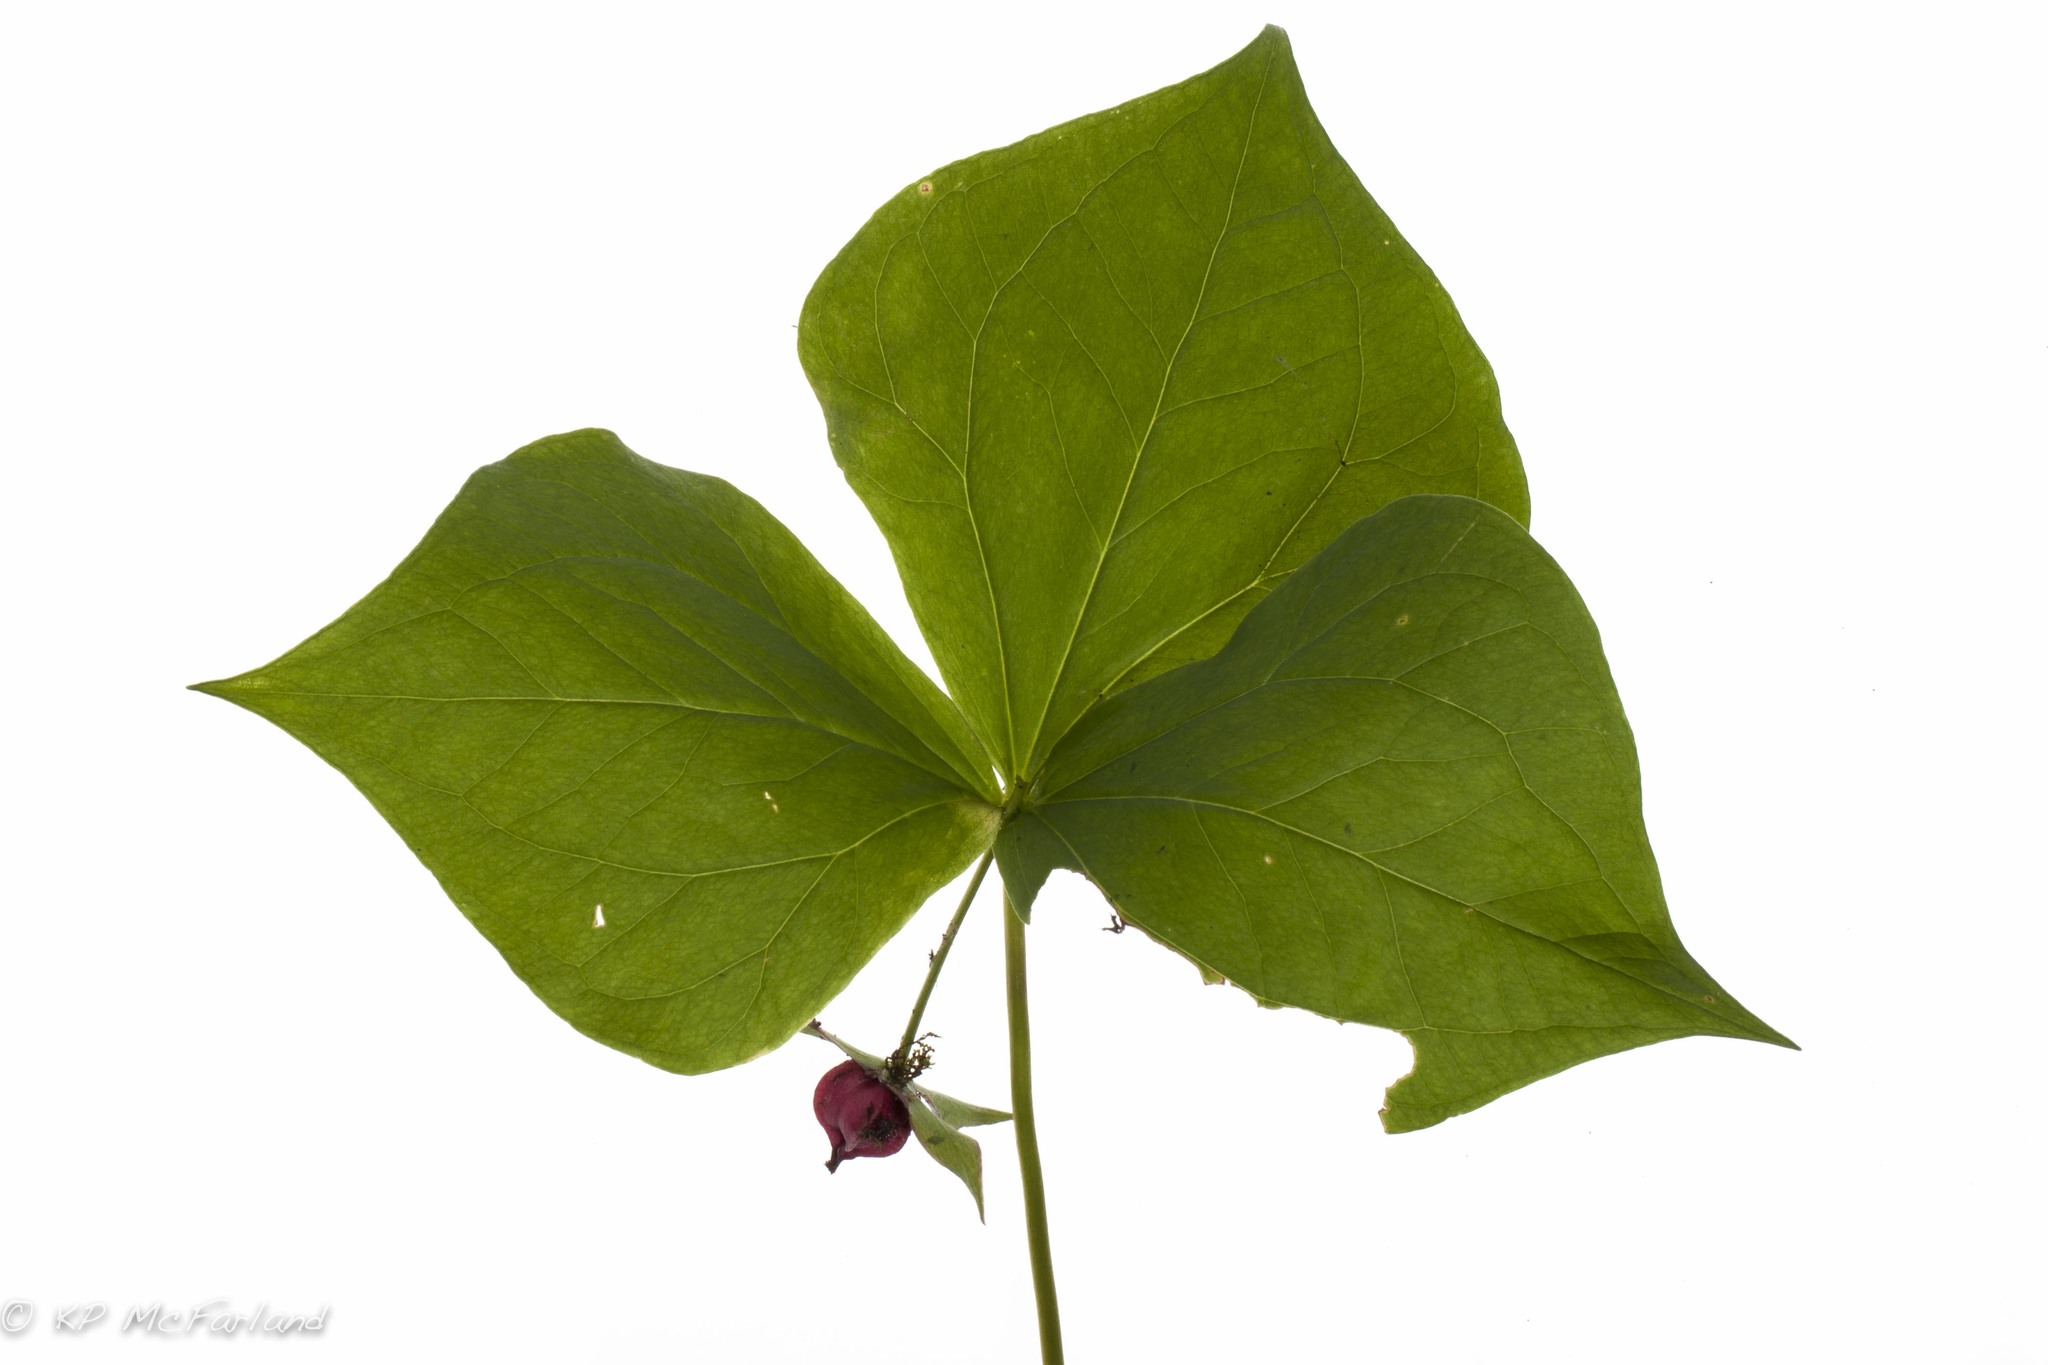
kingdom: Plantae
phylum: Tracheophyta
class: Liliopsida
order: Liliales
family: Melanthiaceae
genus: Trillium
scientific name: Trillium erectum
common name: Purple trillium
